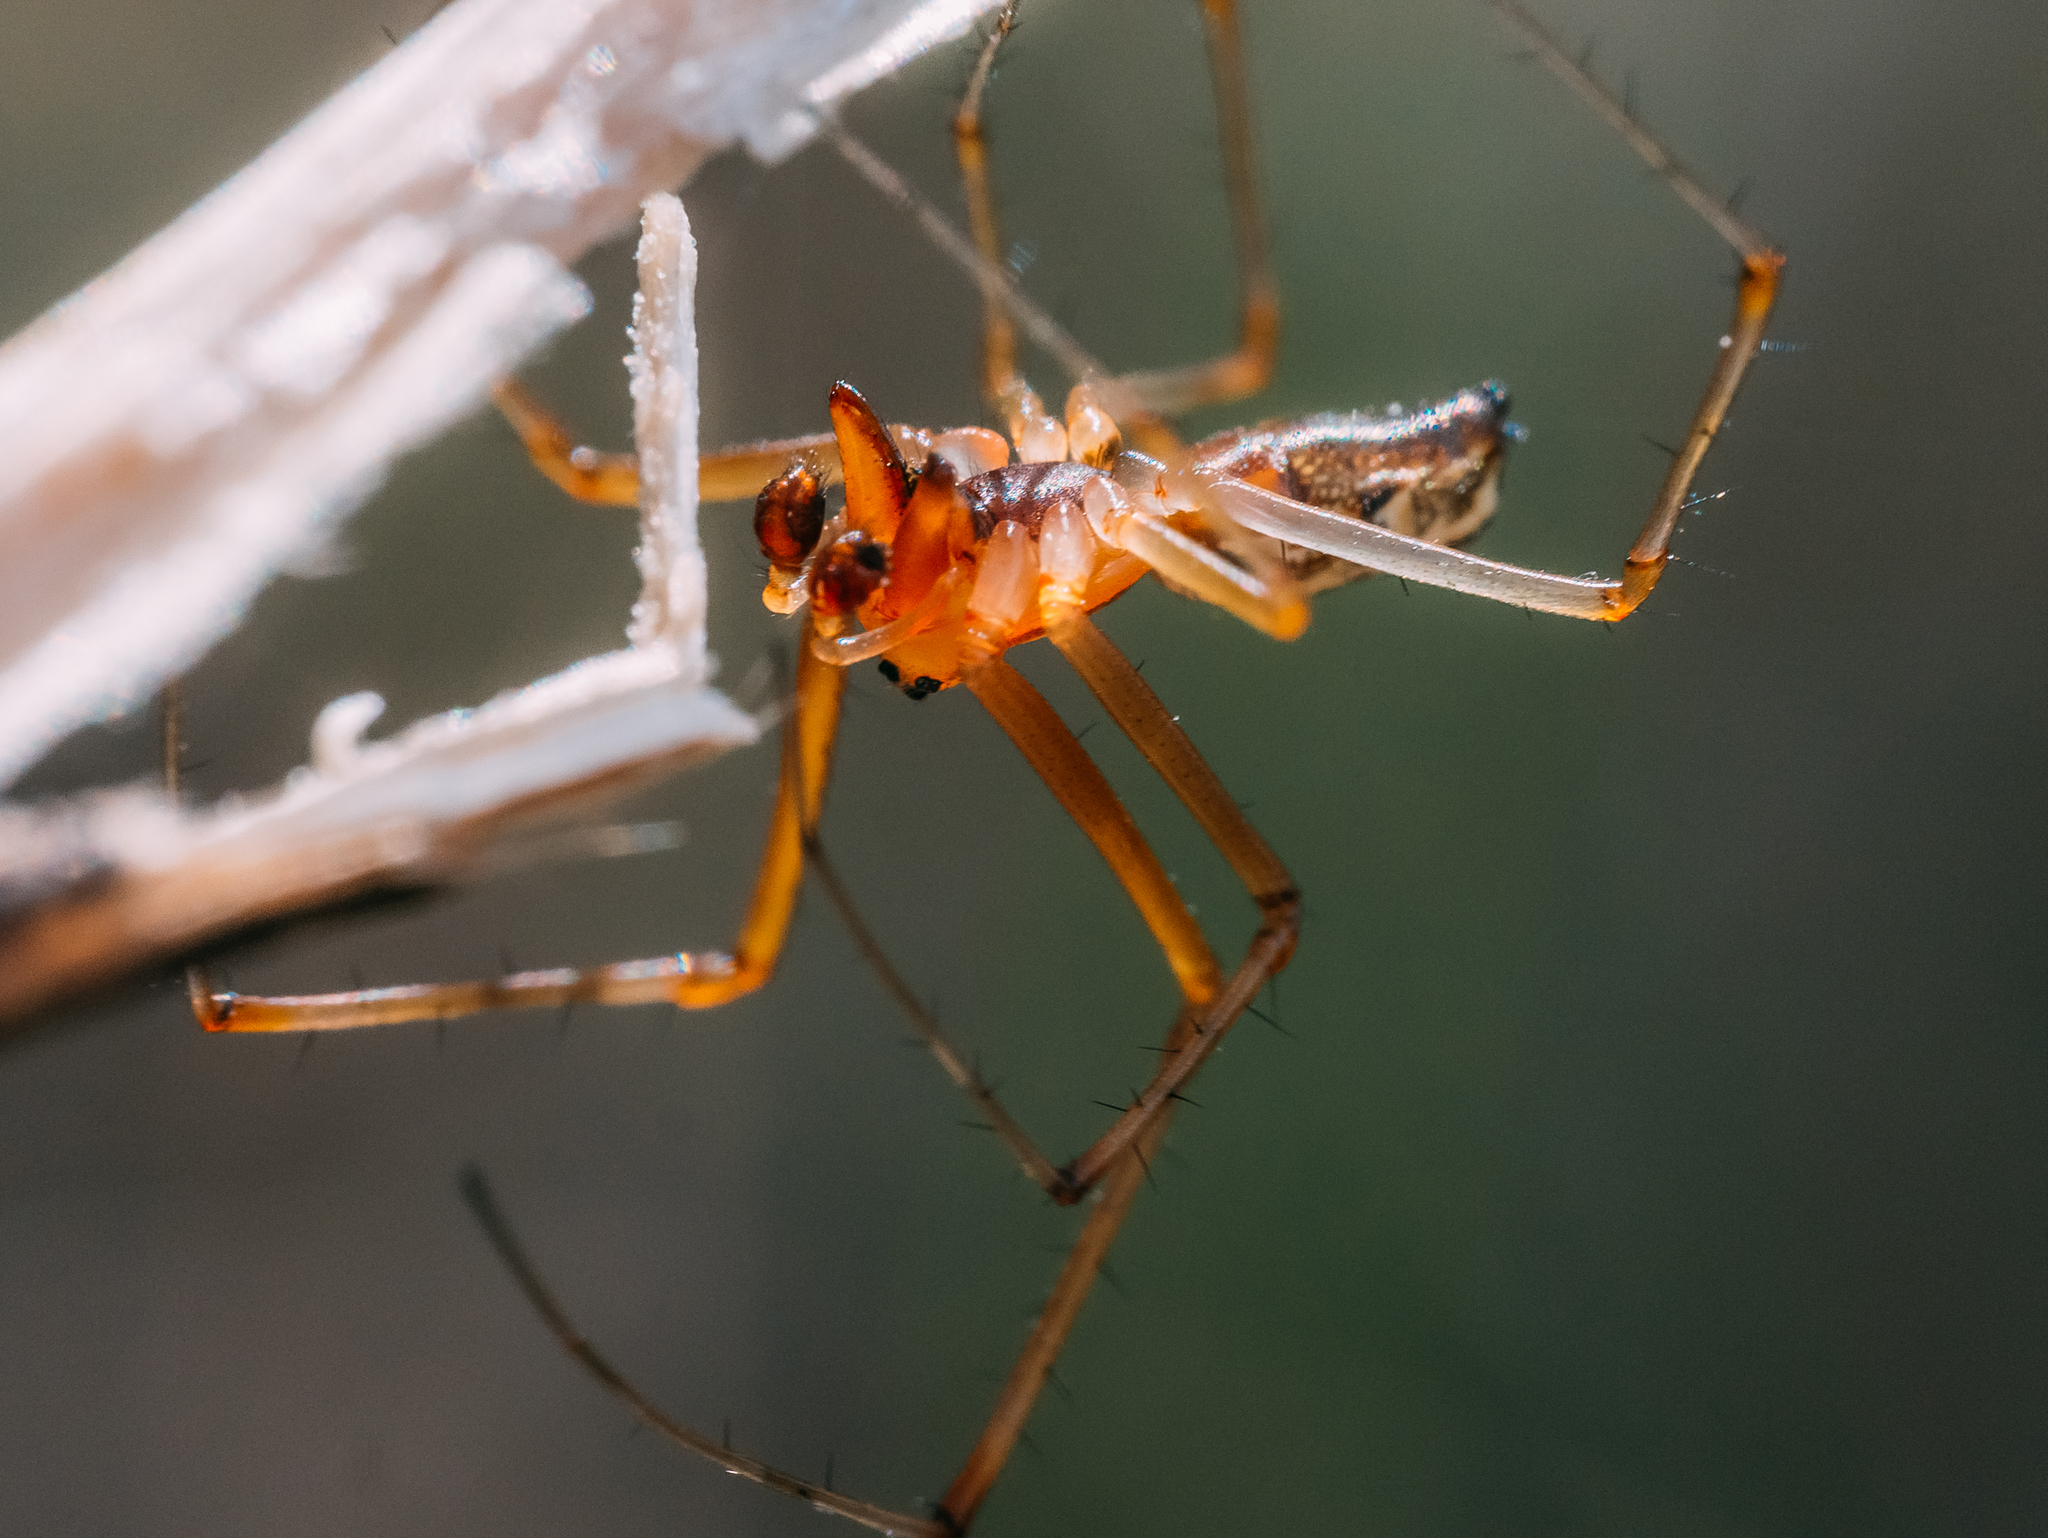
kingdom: Animalia
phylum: Arthropoda
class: Arachnida
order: Araneae
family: Linyphiidae
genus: Linyphia
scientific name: Linyphia triangularis
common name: Money spider
